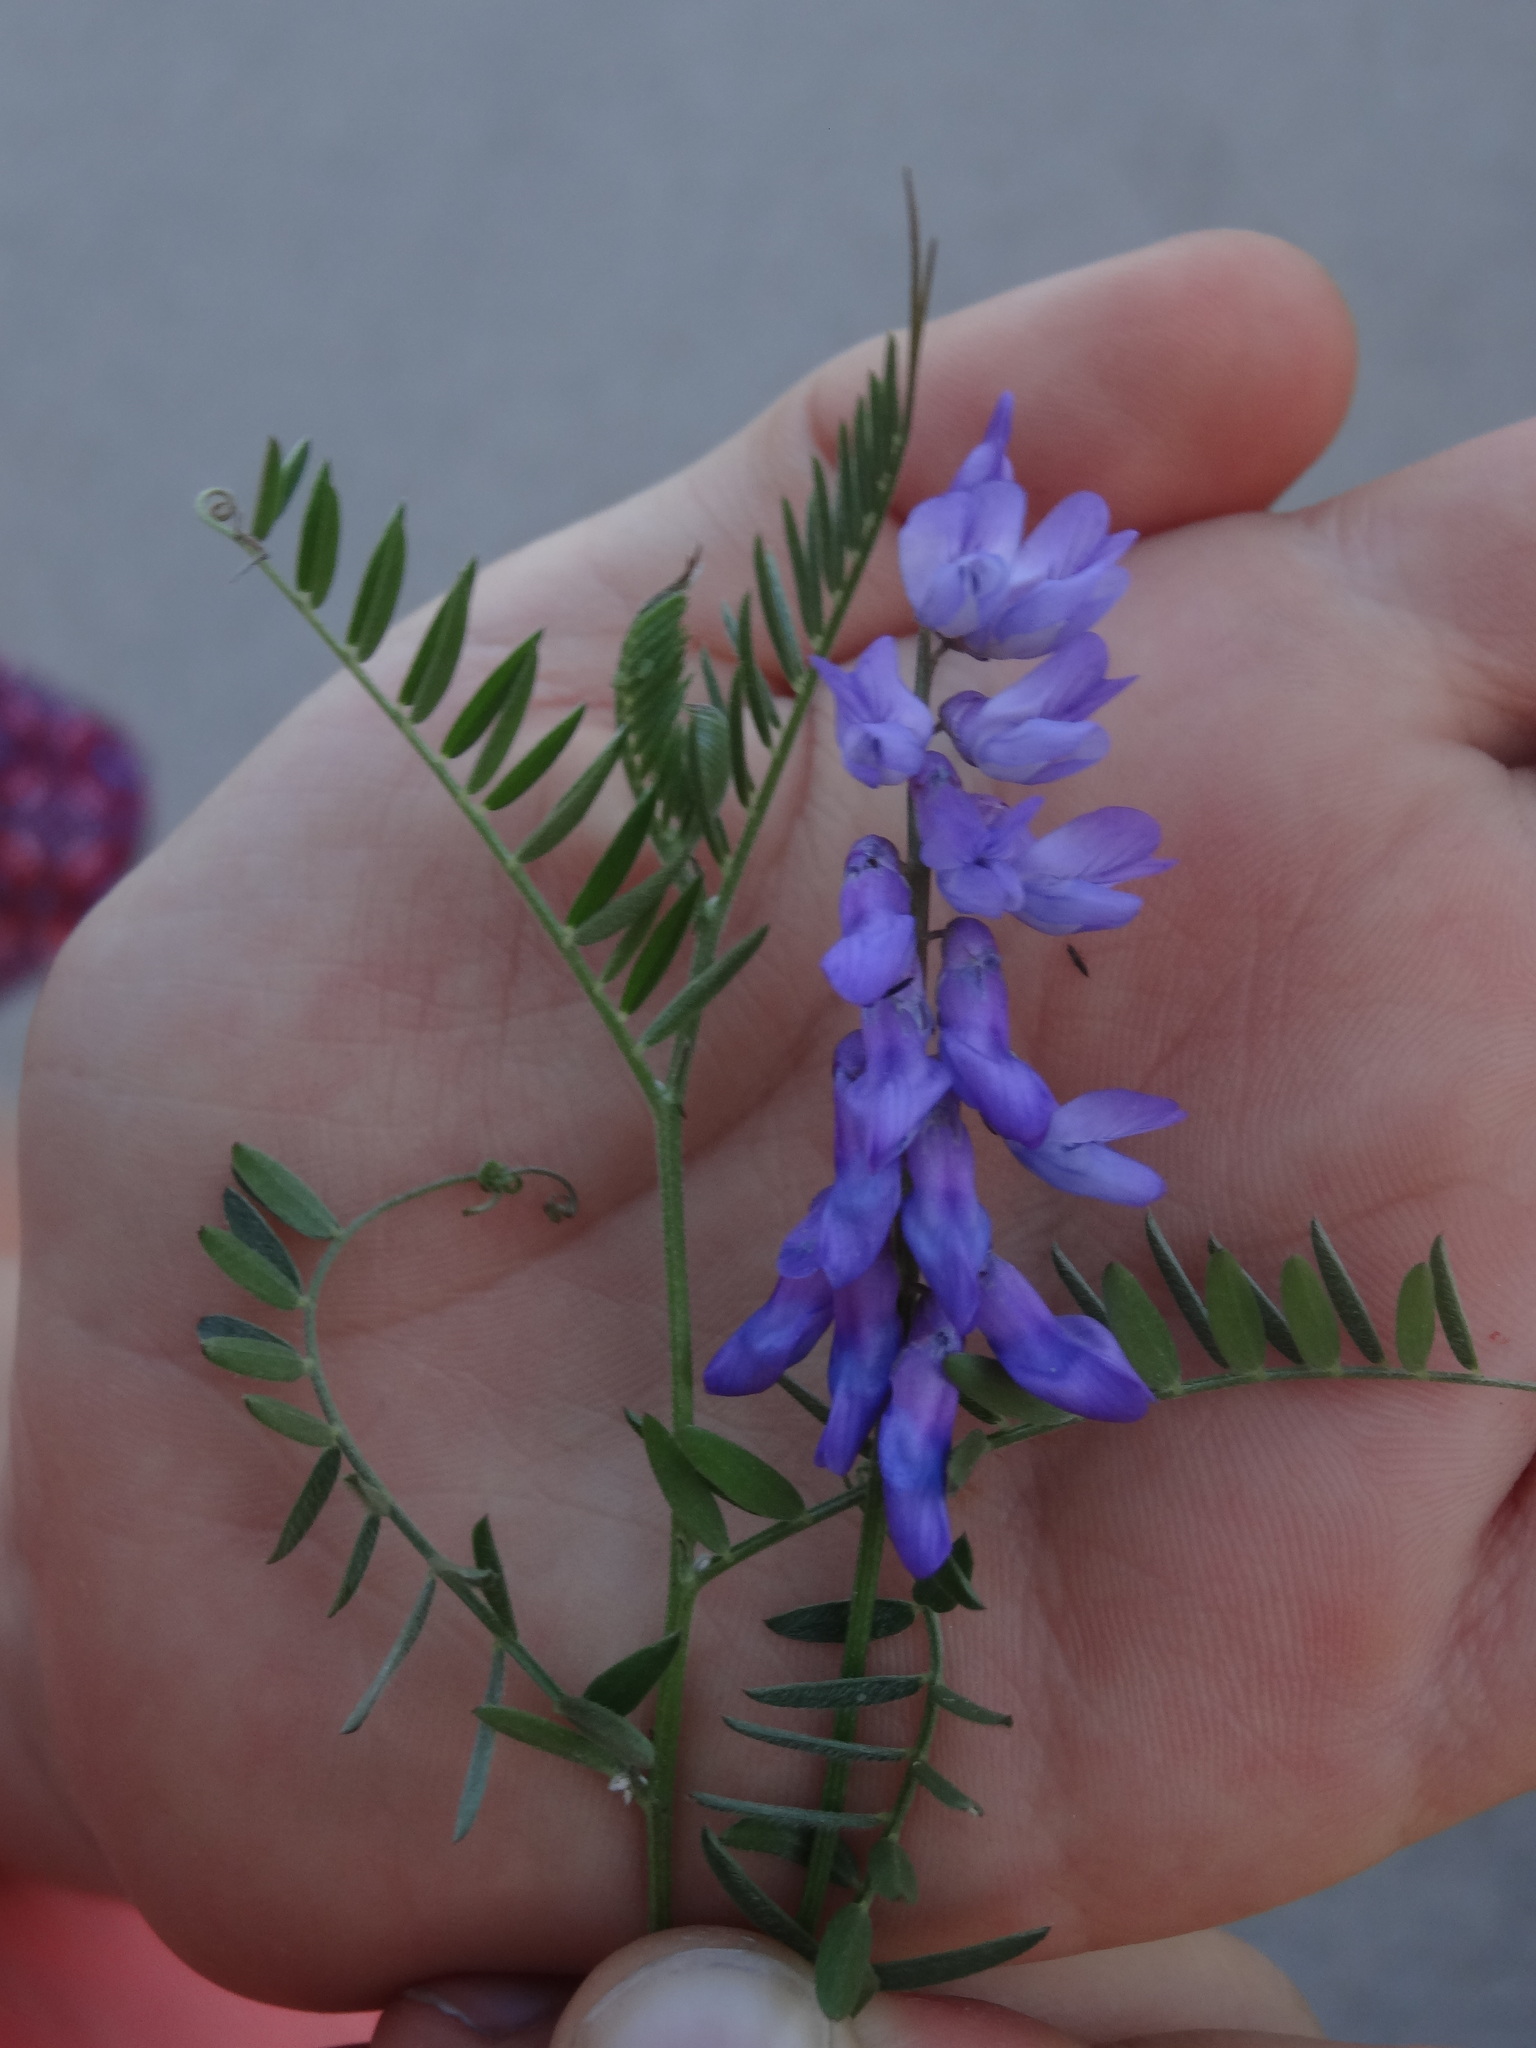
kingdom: Plantae
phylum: Tracheophyta
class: Magnoliopsida
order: Fabales
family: Fabaceae
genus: Vicia
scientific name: Vicia cracca
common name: Bird vetch
